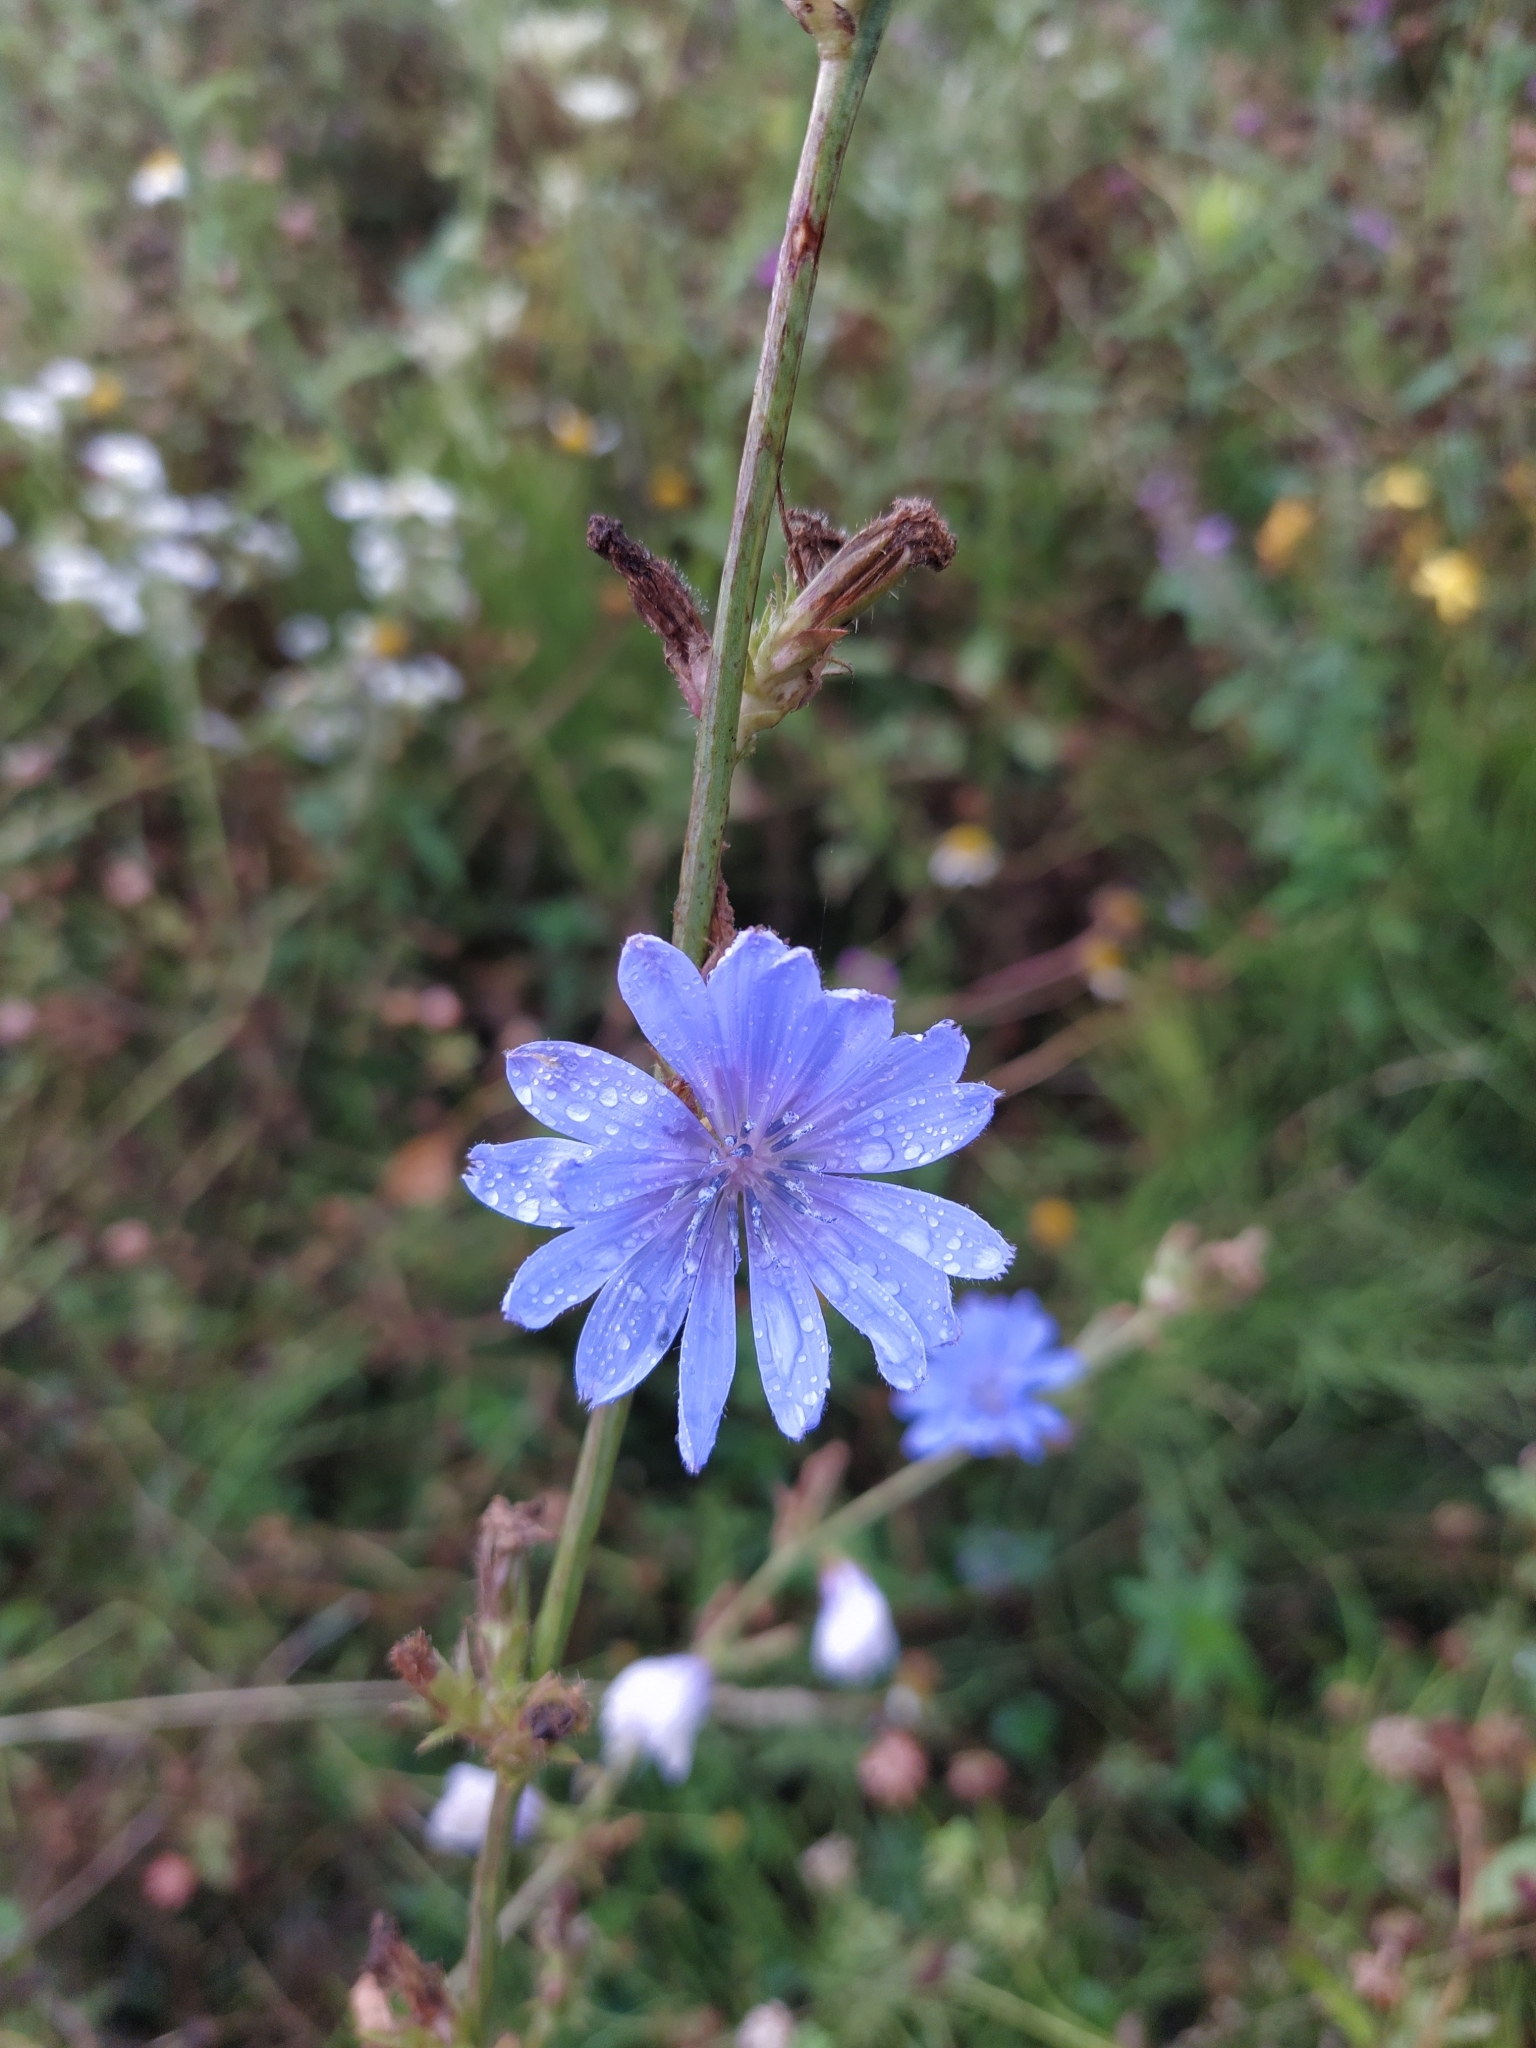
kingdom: Plantae
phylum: Tracheophyta
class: Magnoliopsida
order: Asterales
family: Asteraceae
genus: Cichorium
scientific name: Cichorium intybus
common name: Chicory
